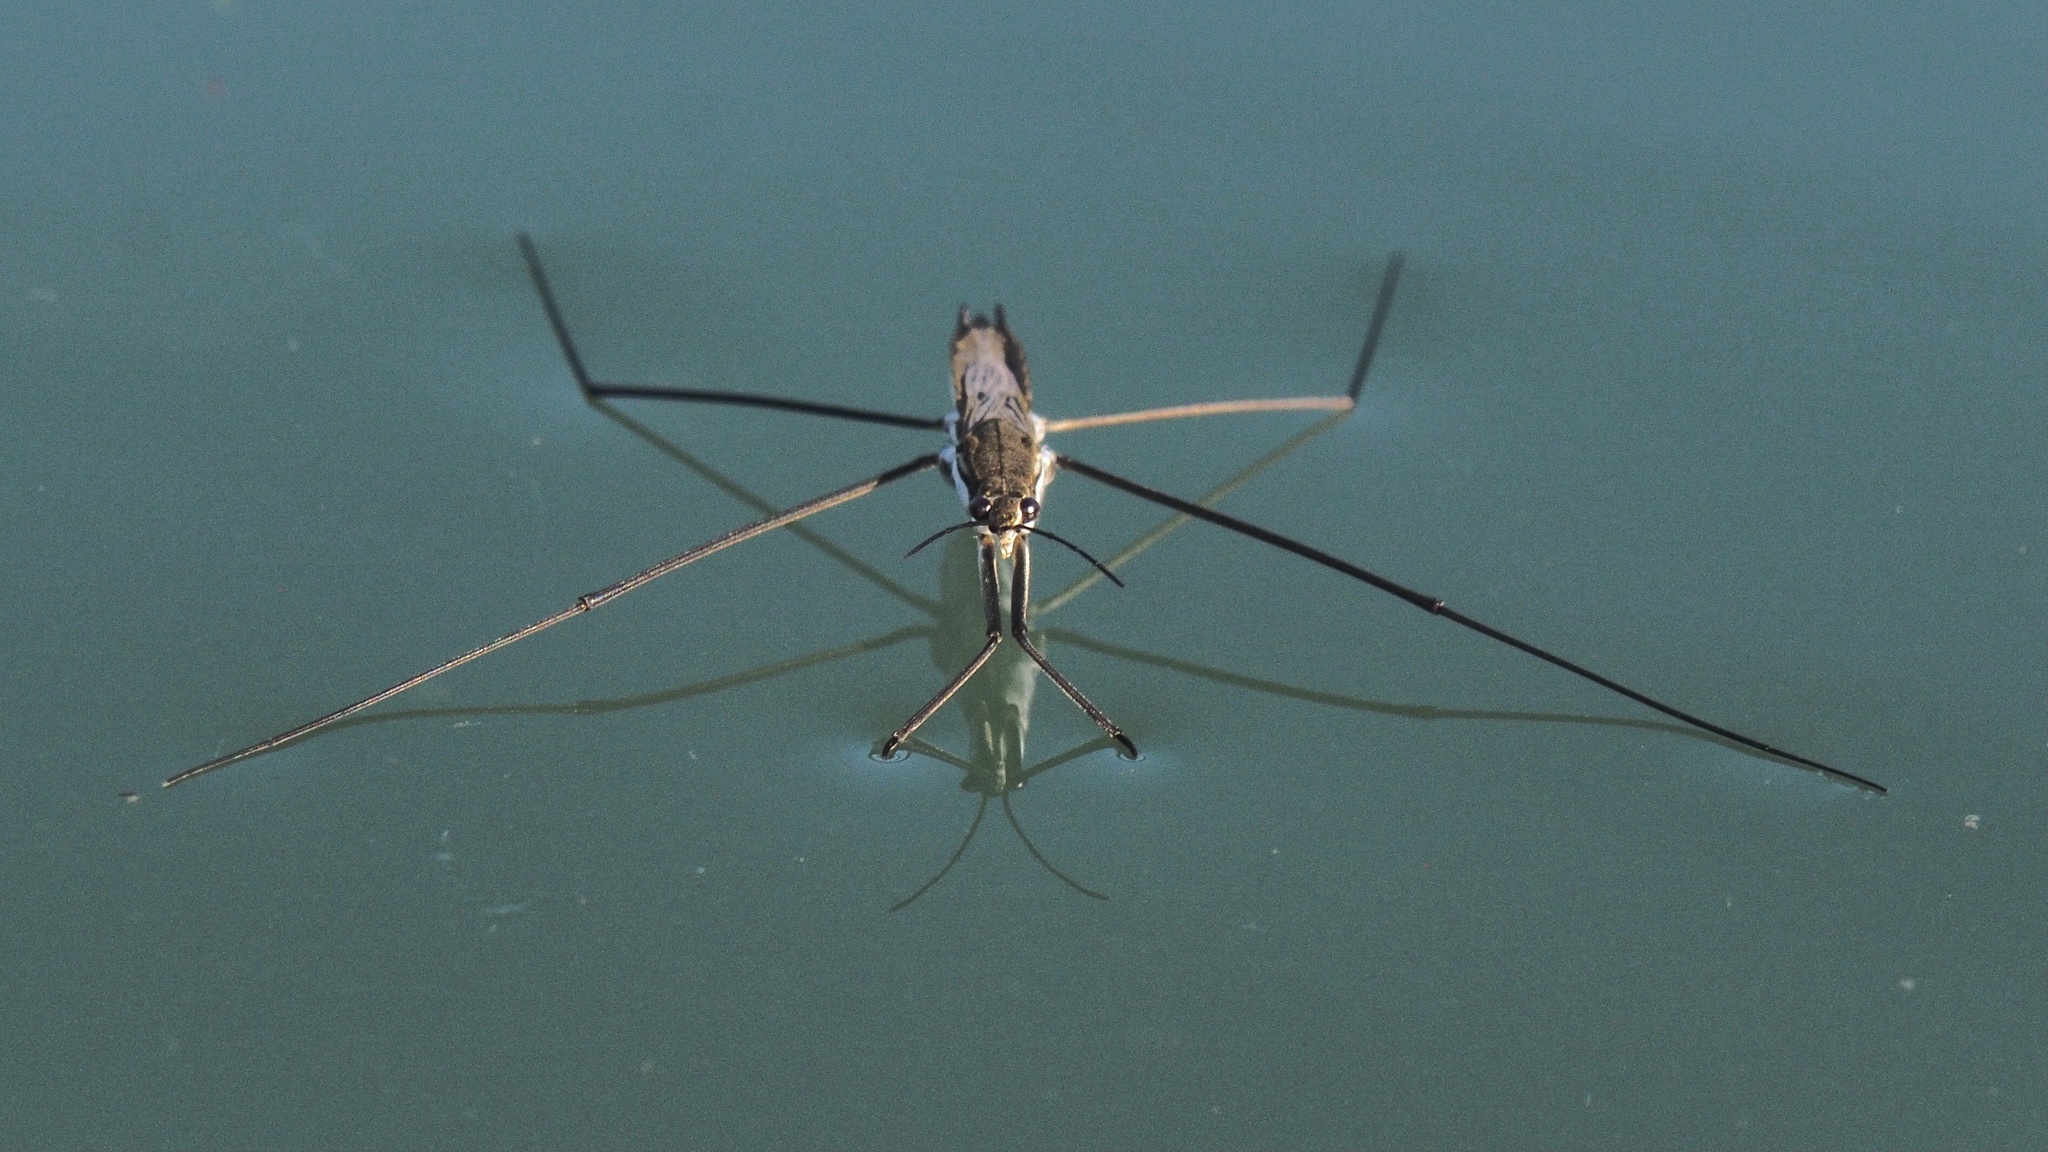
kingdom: Animalia
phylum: Arthropoda
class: Insecta
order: Hemiptera
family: Gerridae
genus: Aquarius
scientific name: Aquarius paludum
